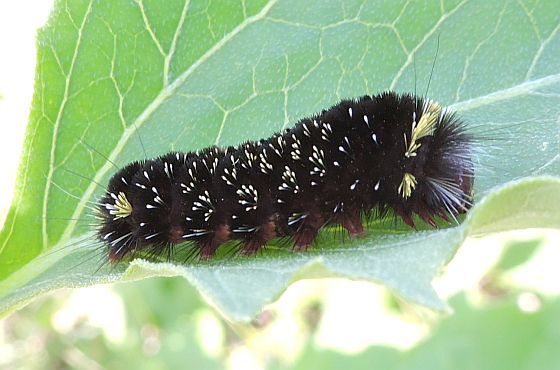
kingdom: Animalia
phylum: Arthropoda
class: Insecta
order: Lepidoptera
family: Erebidae
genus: Hypocrisias
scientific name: Hypocrisias minima
